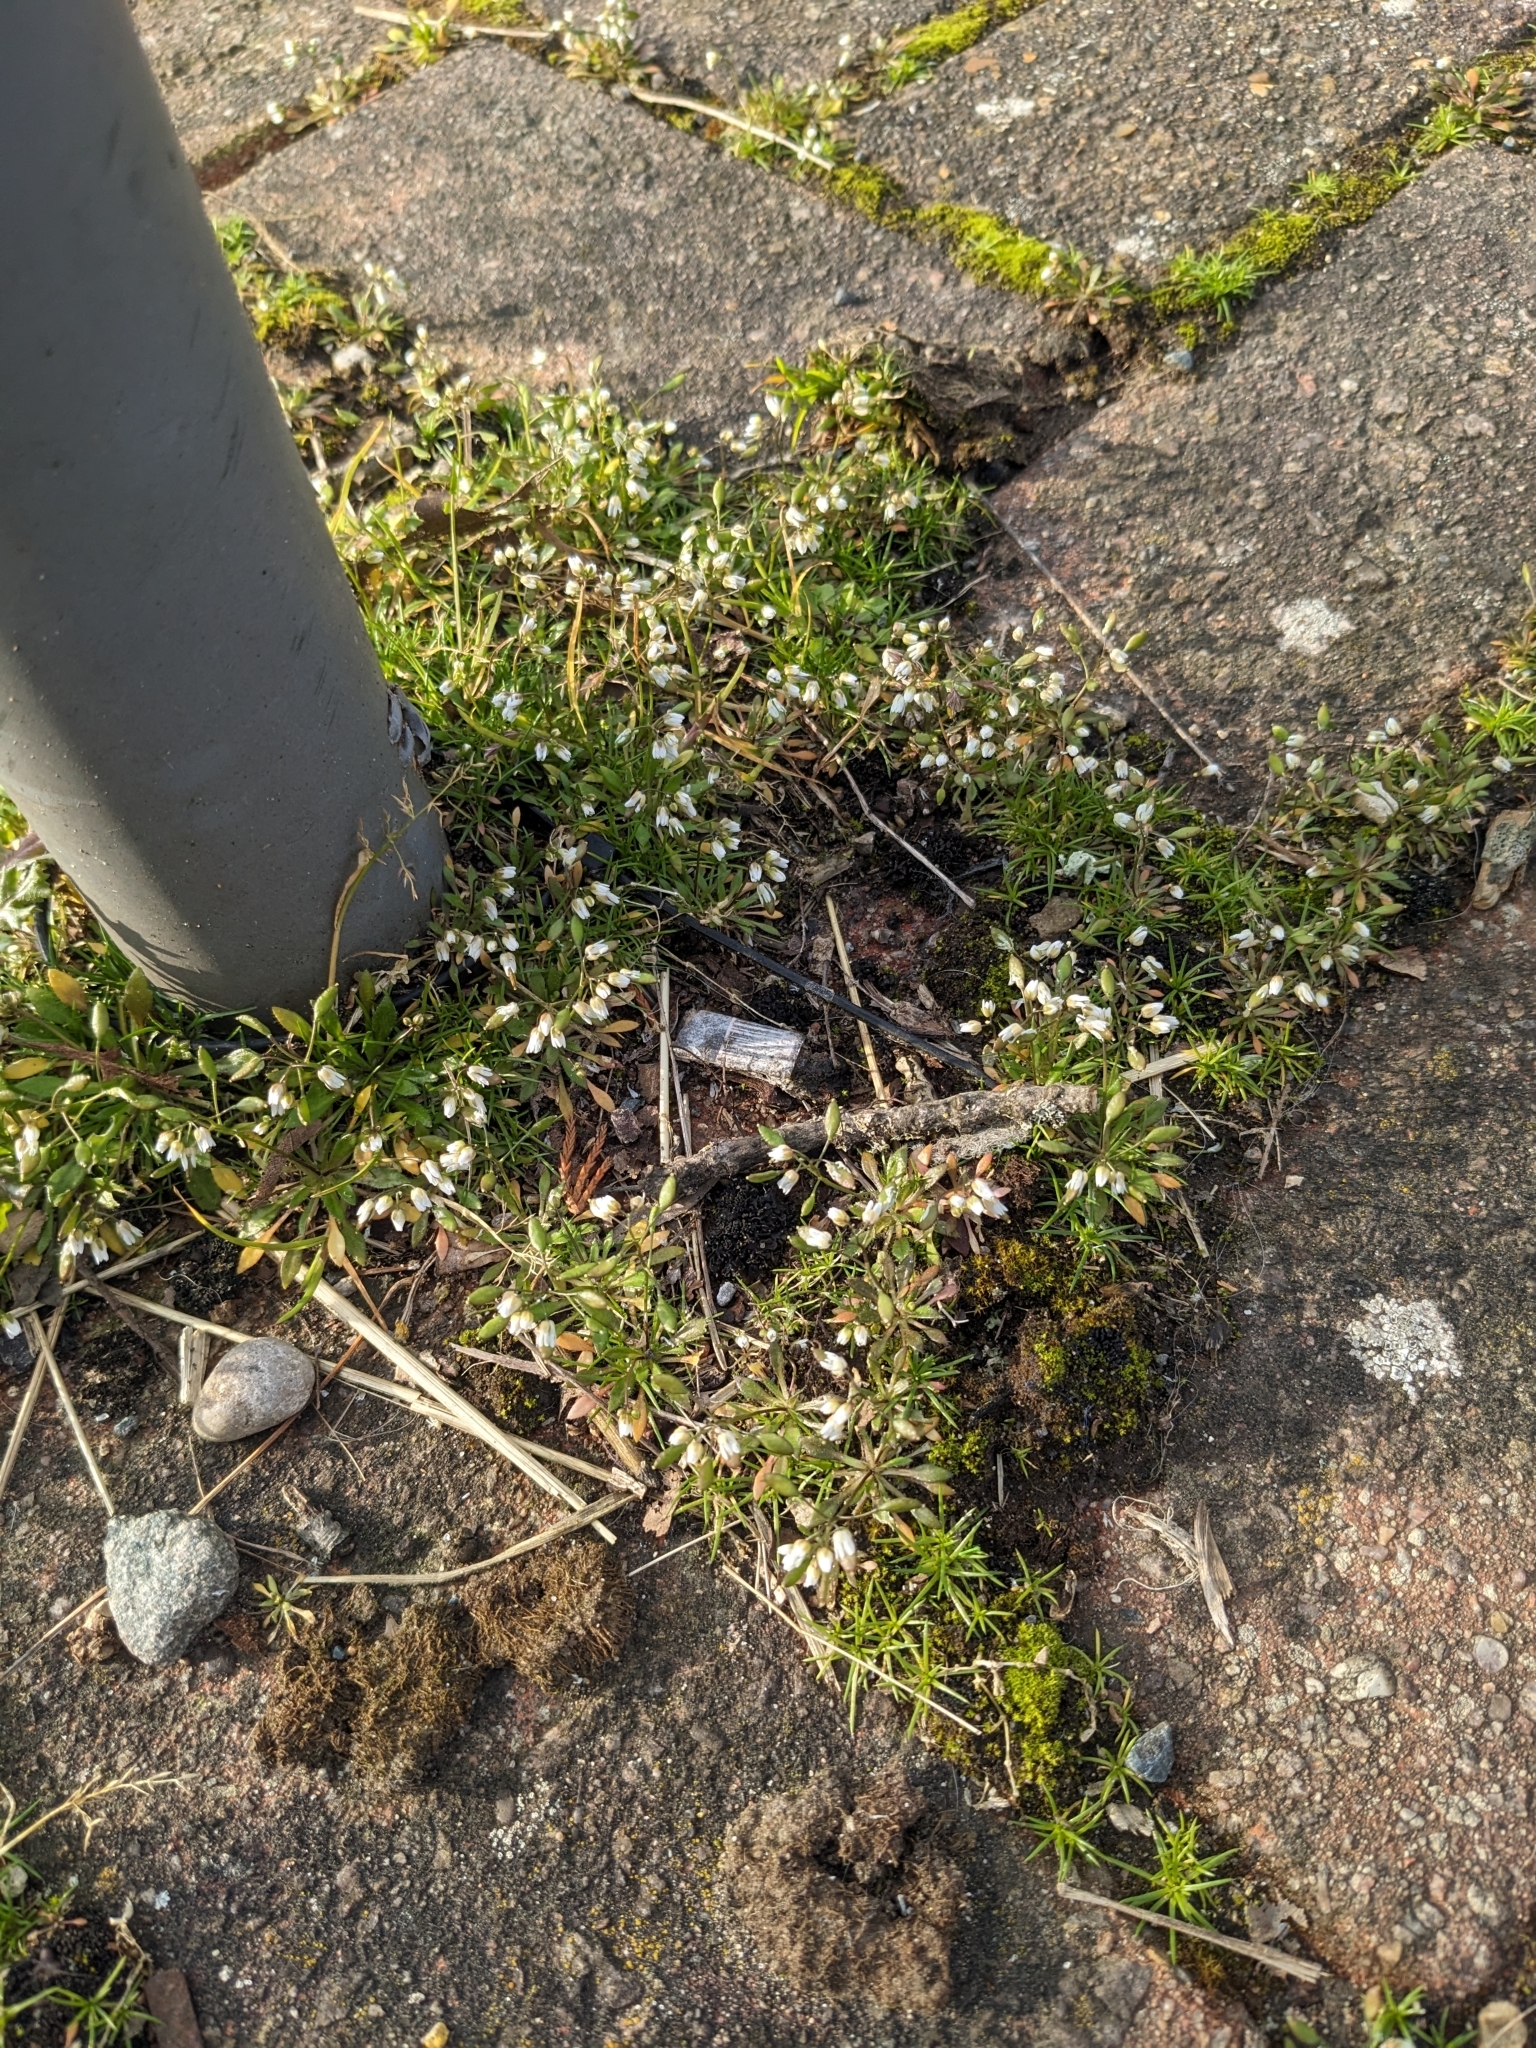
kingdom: Plantae
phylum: Tracheophyta
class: Magnoliopsida
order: Brassicales
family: Brassicaceae
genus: Draba
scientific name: Draba verna
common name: Spring draba
